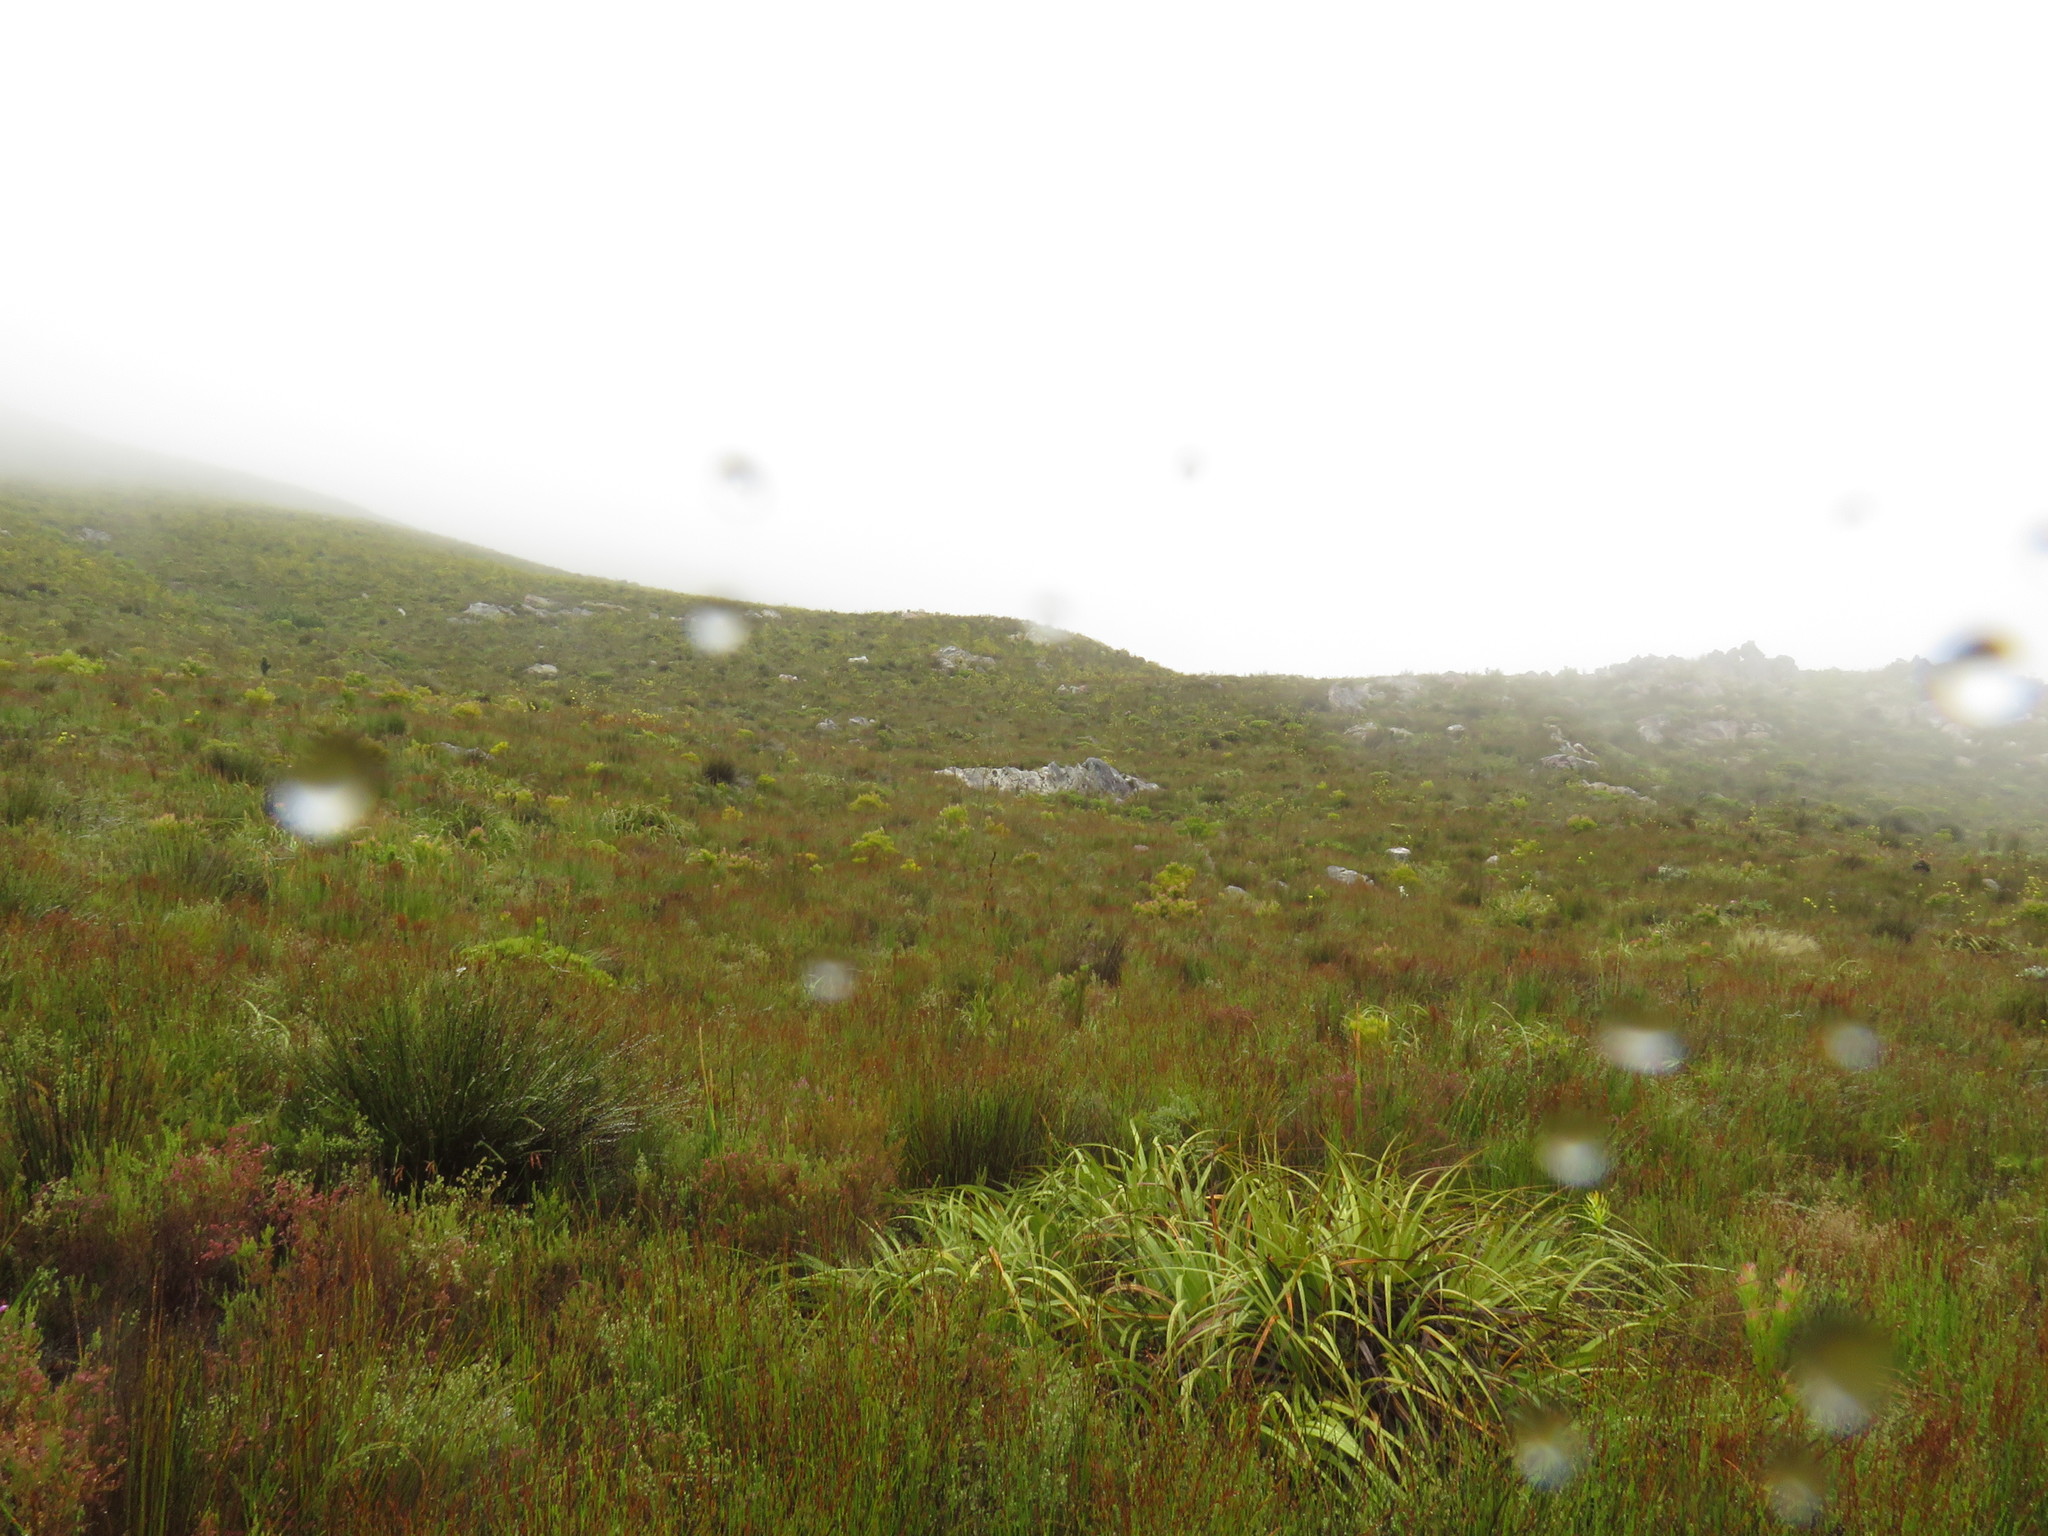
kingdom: Plantae
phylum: Tracheophyta
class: Liliopsida
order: Poales
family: Cyperaceae
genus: Tetraria
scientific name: Tetraria thermalis
